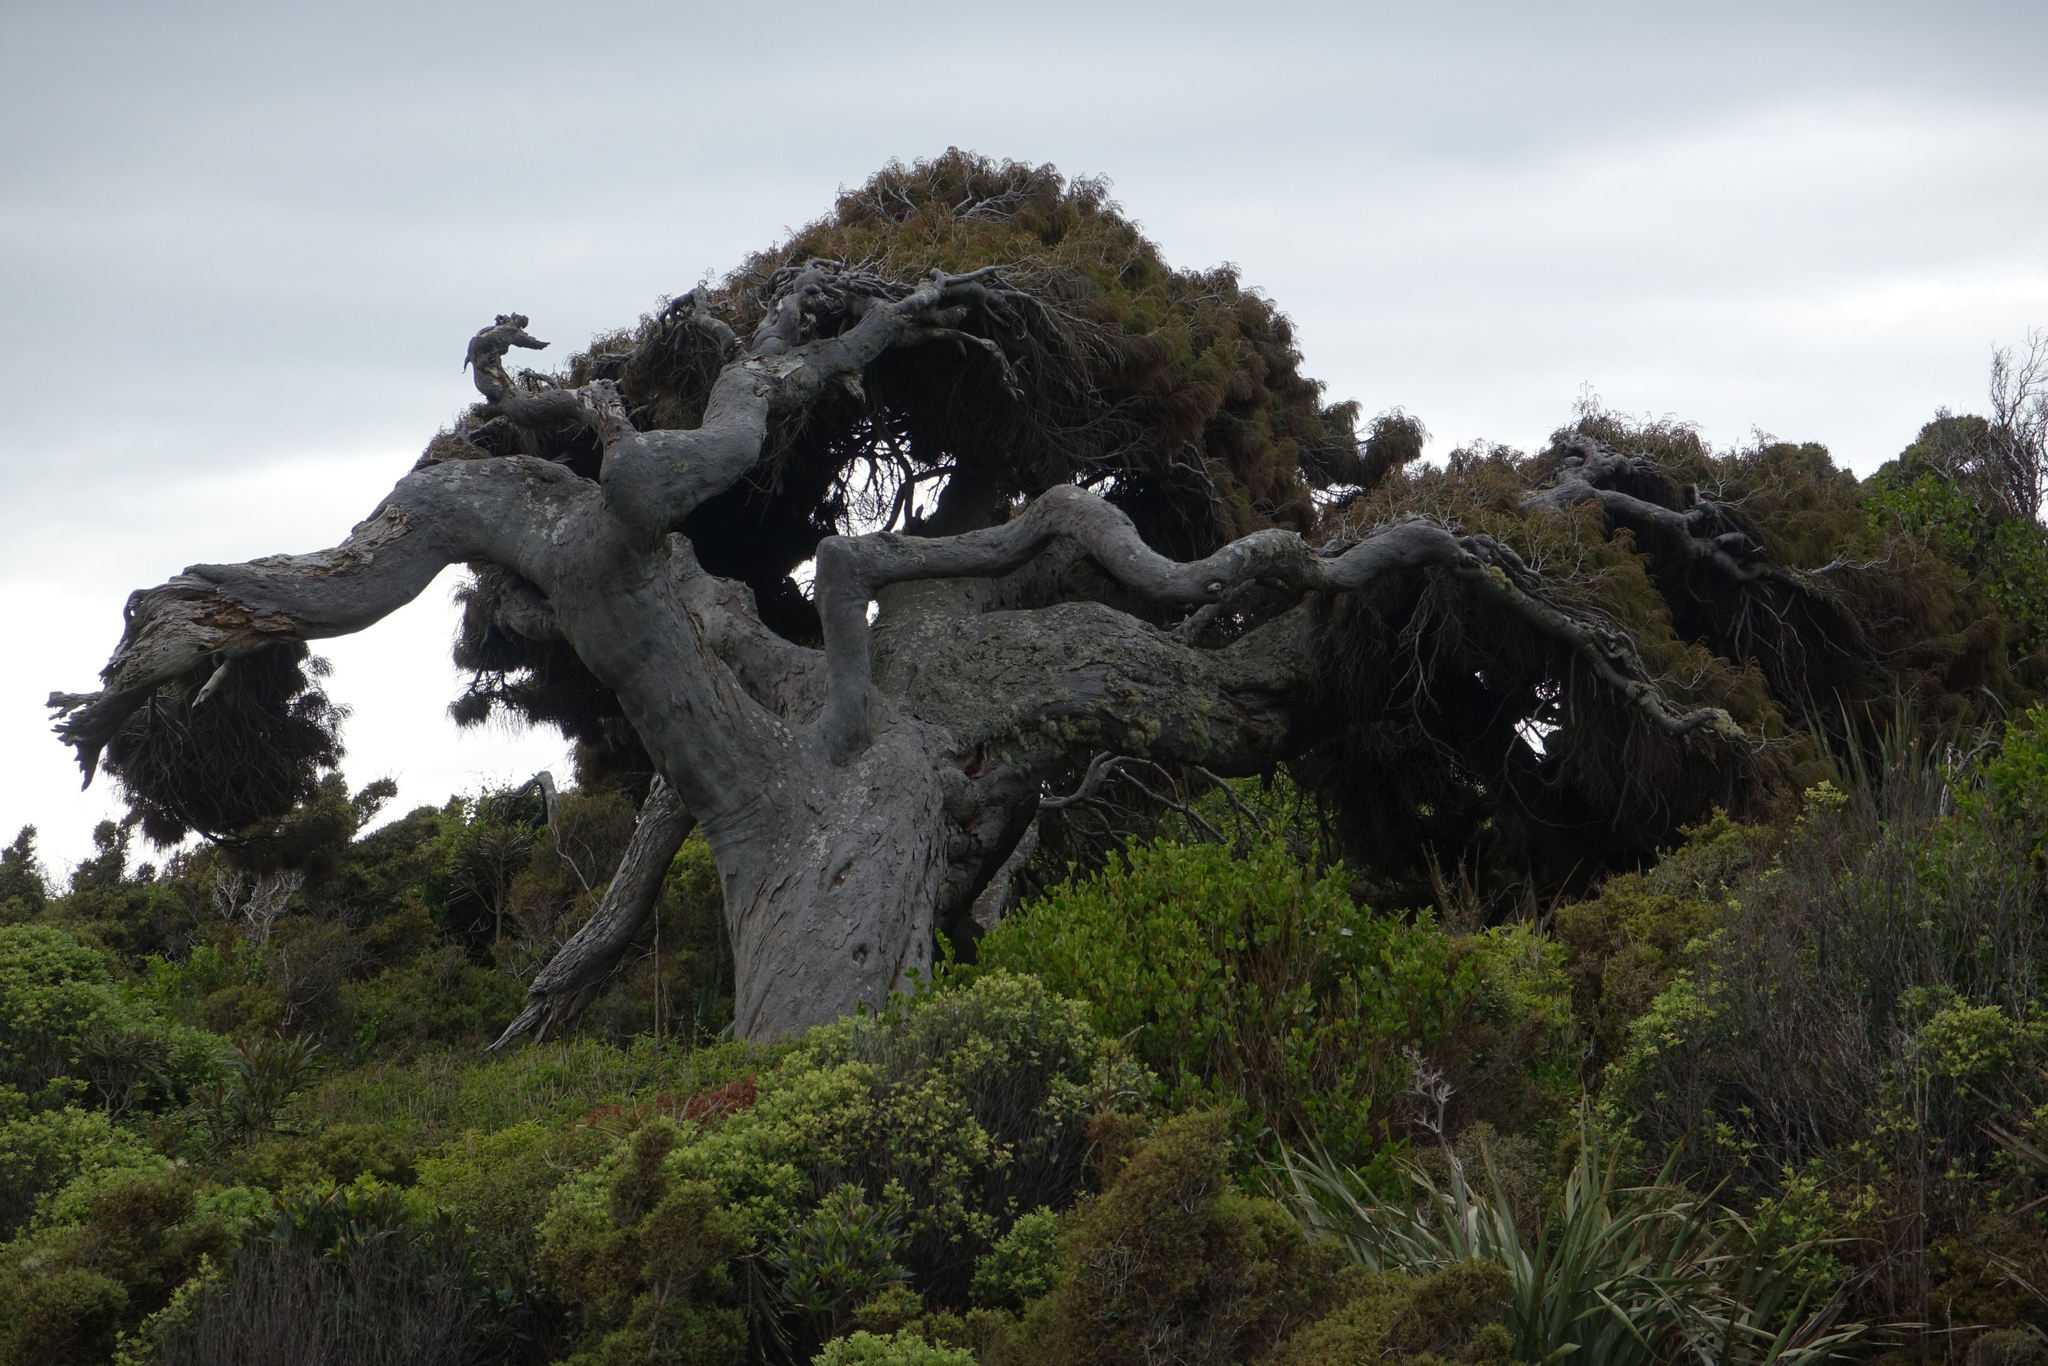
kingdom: Plantae
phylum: Tracheophyta
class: Pinopsida
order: Pinales
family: Podocarpaceae
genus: Dacrydium
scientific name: Dacrydium cupressinum
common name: Red pine
